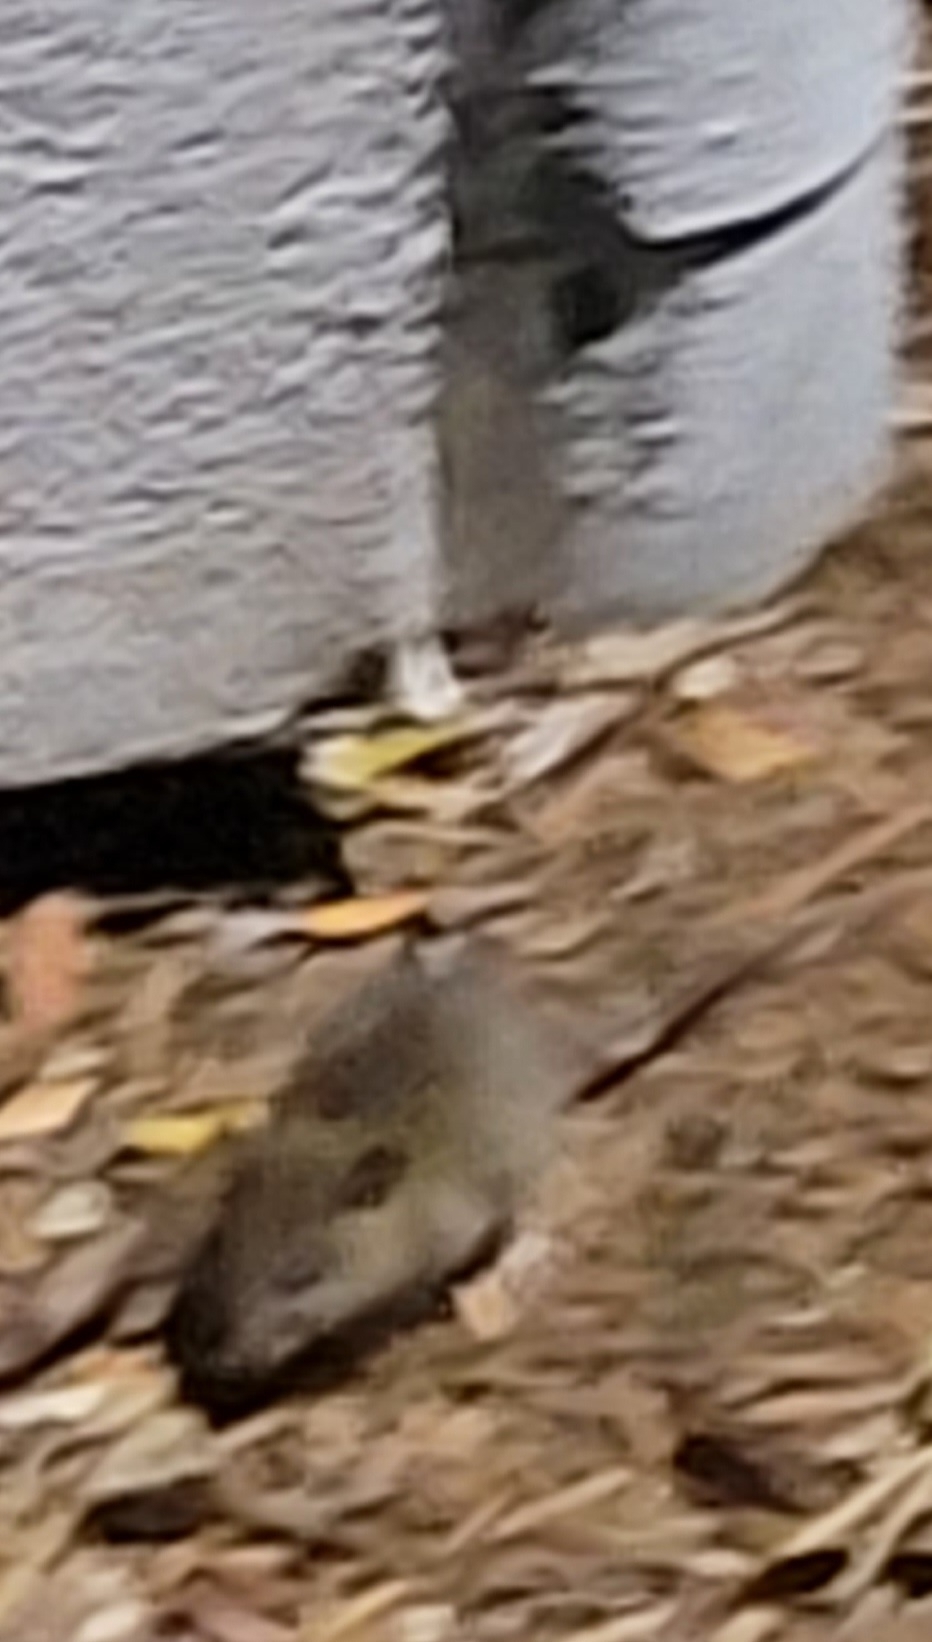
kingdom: Animalia
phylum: Chordata
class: Mammalia
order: Rodentia
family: Muridae
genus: Mus
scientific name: Mus musculus
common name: House mouse
